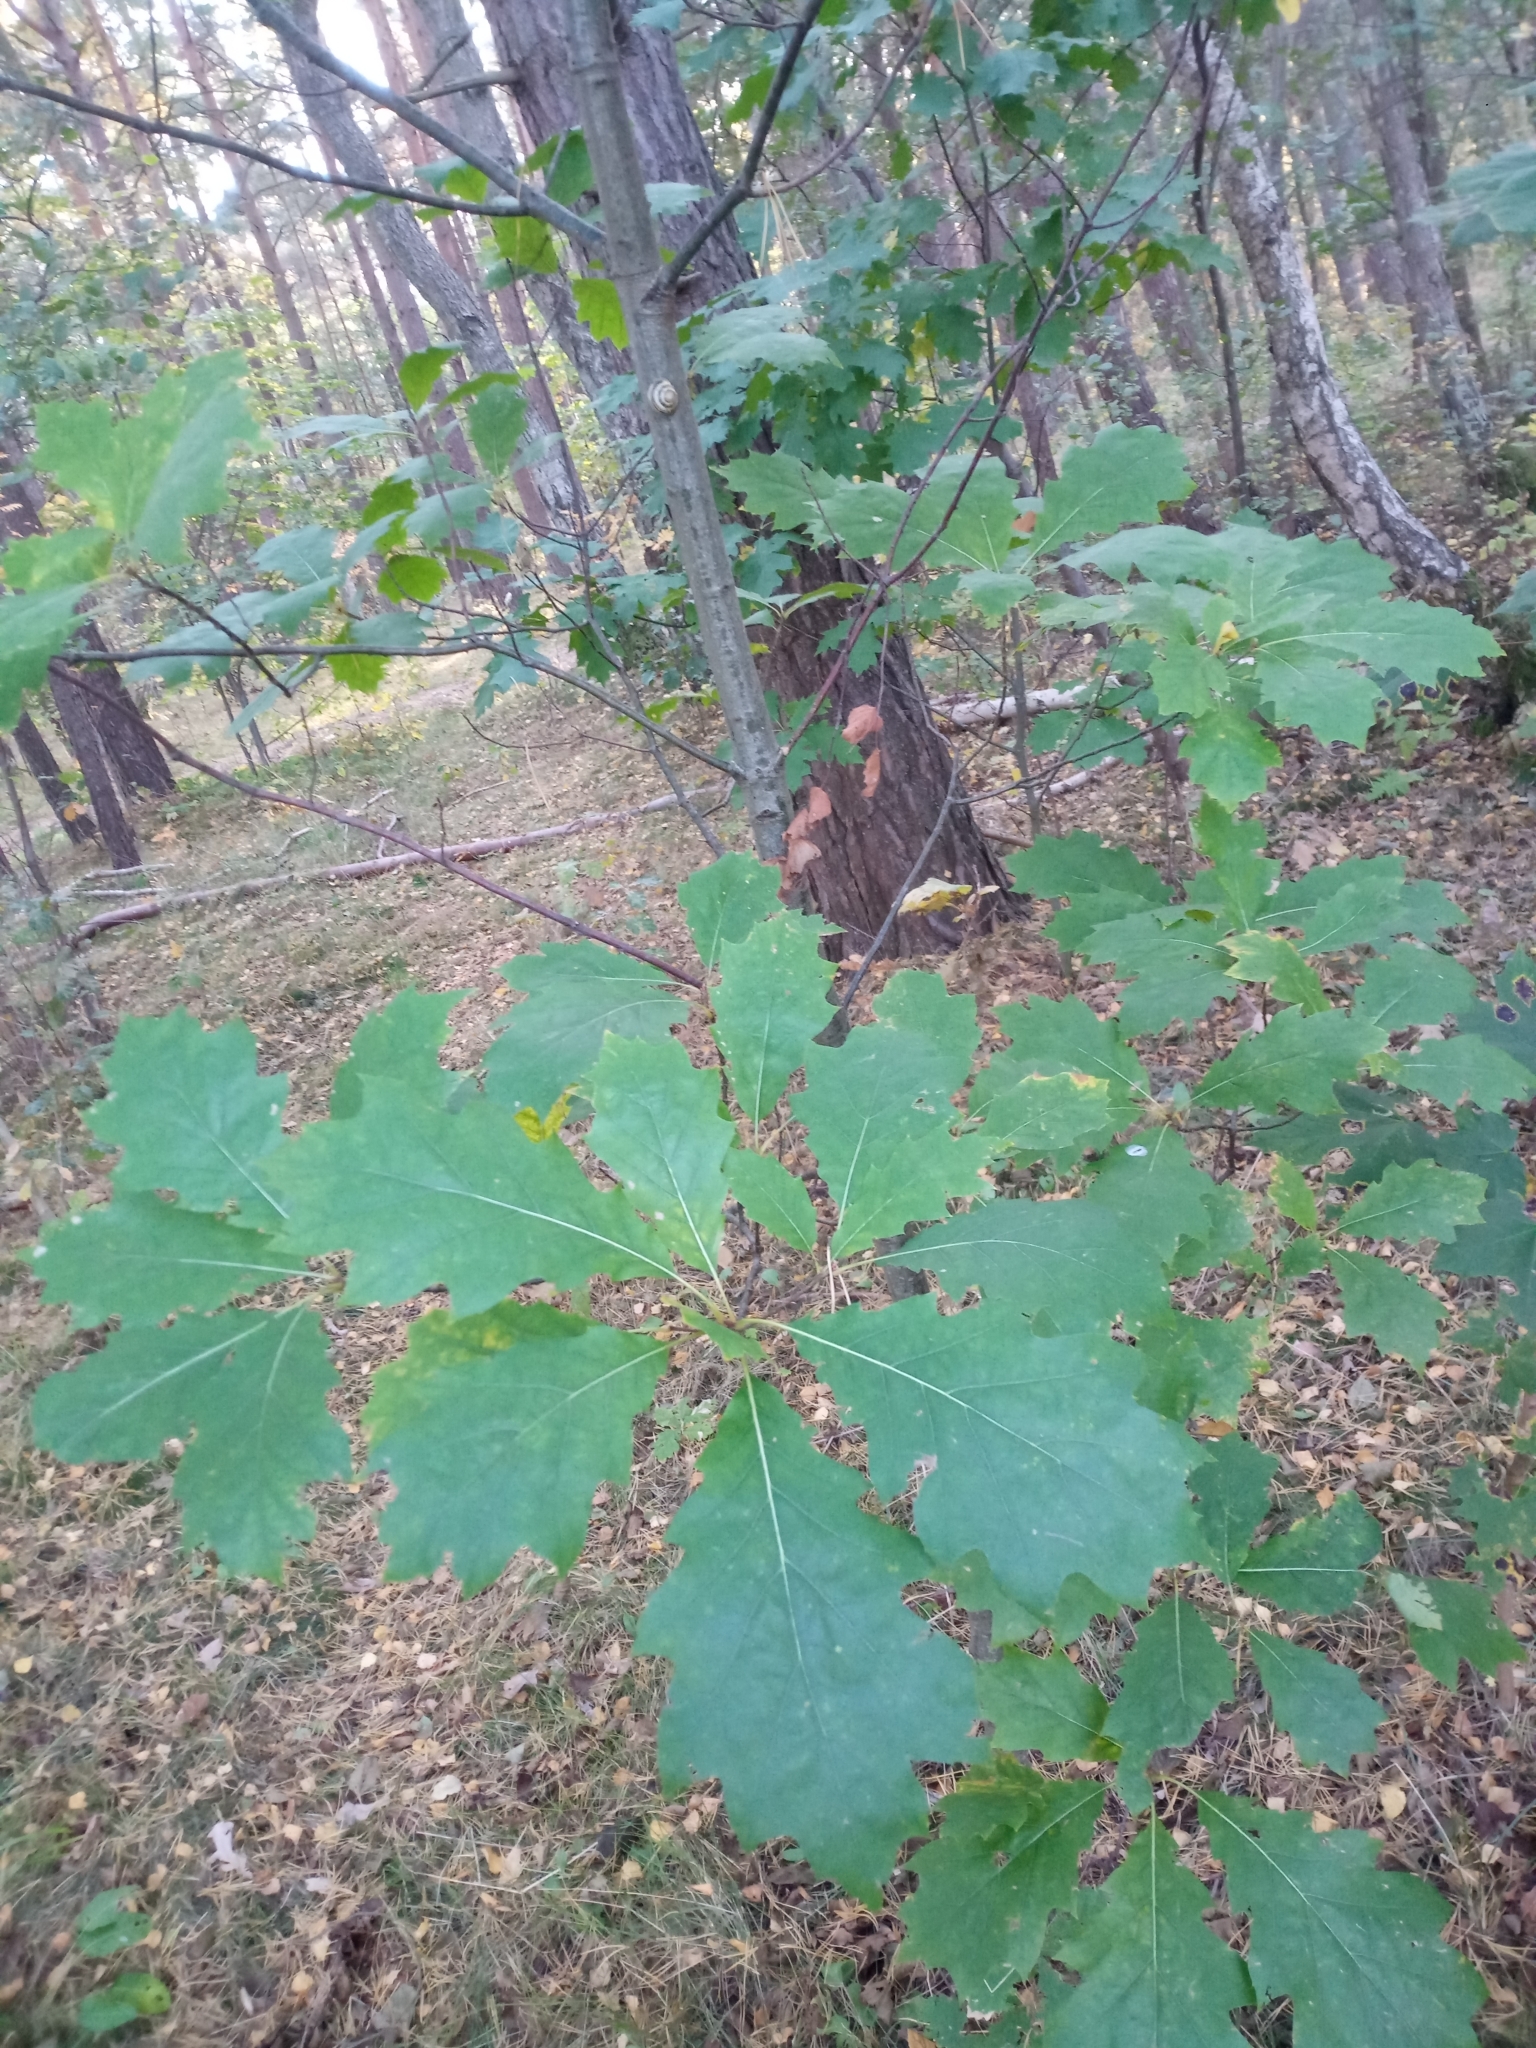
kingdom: Plantae
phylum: Tracheophyta
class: Magnoliopsida
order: Fagales
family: Fagaceae
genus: Quercus
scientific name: Quercus rubra
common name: Red oak
